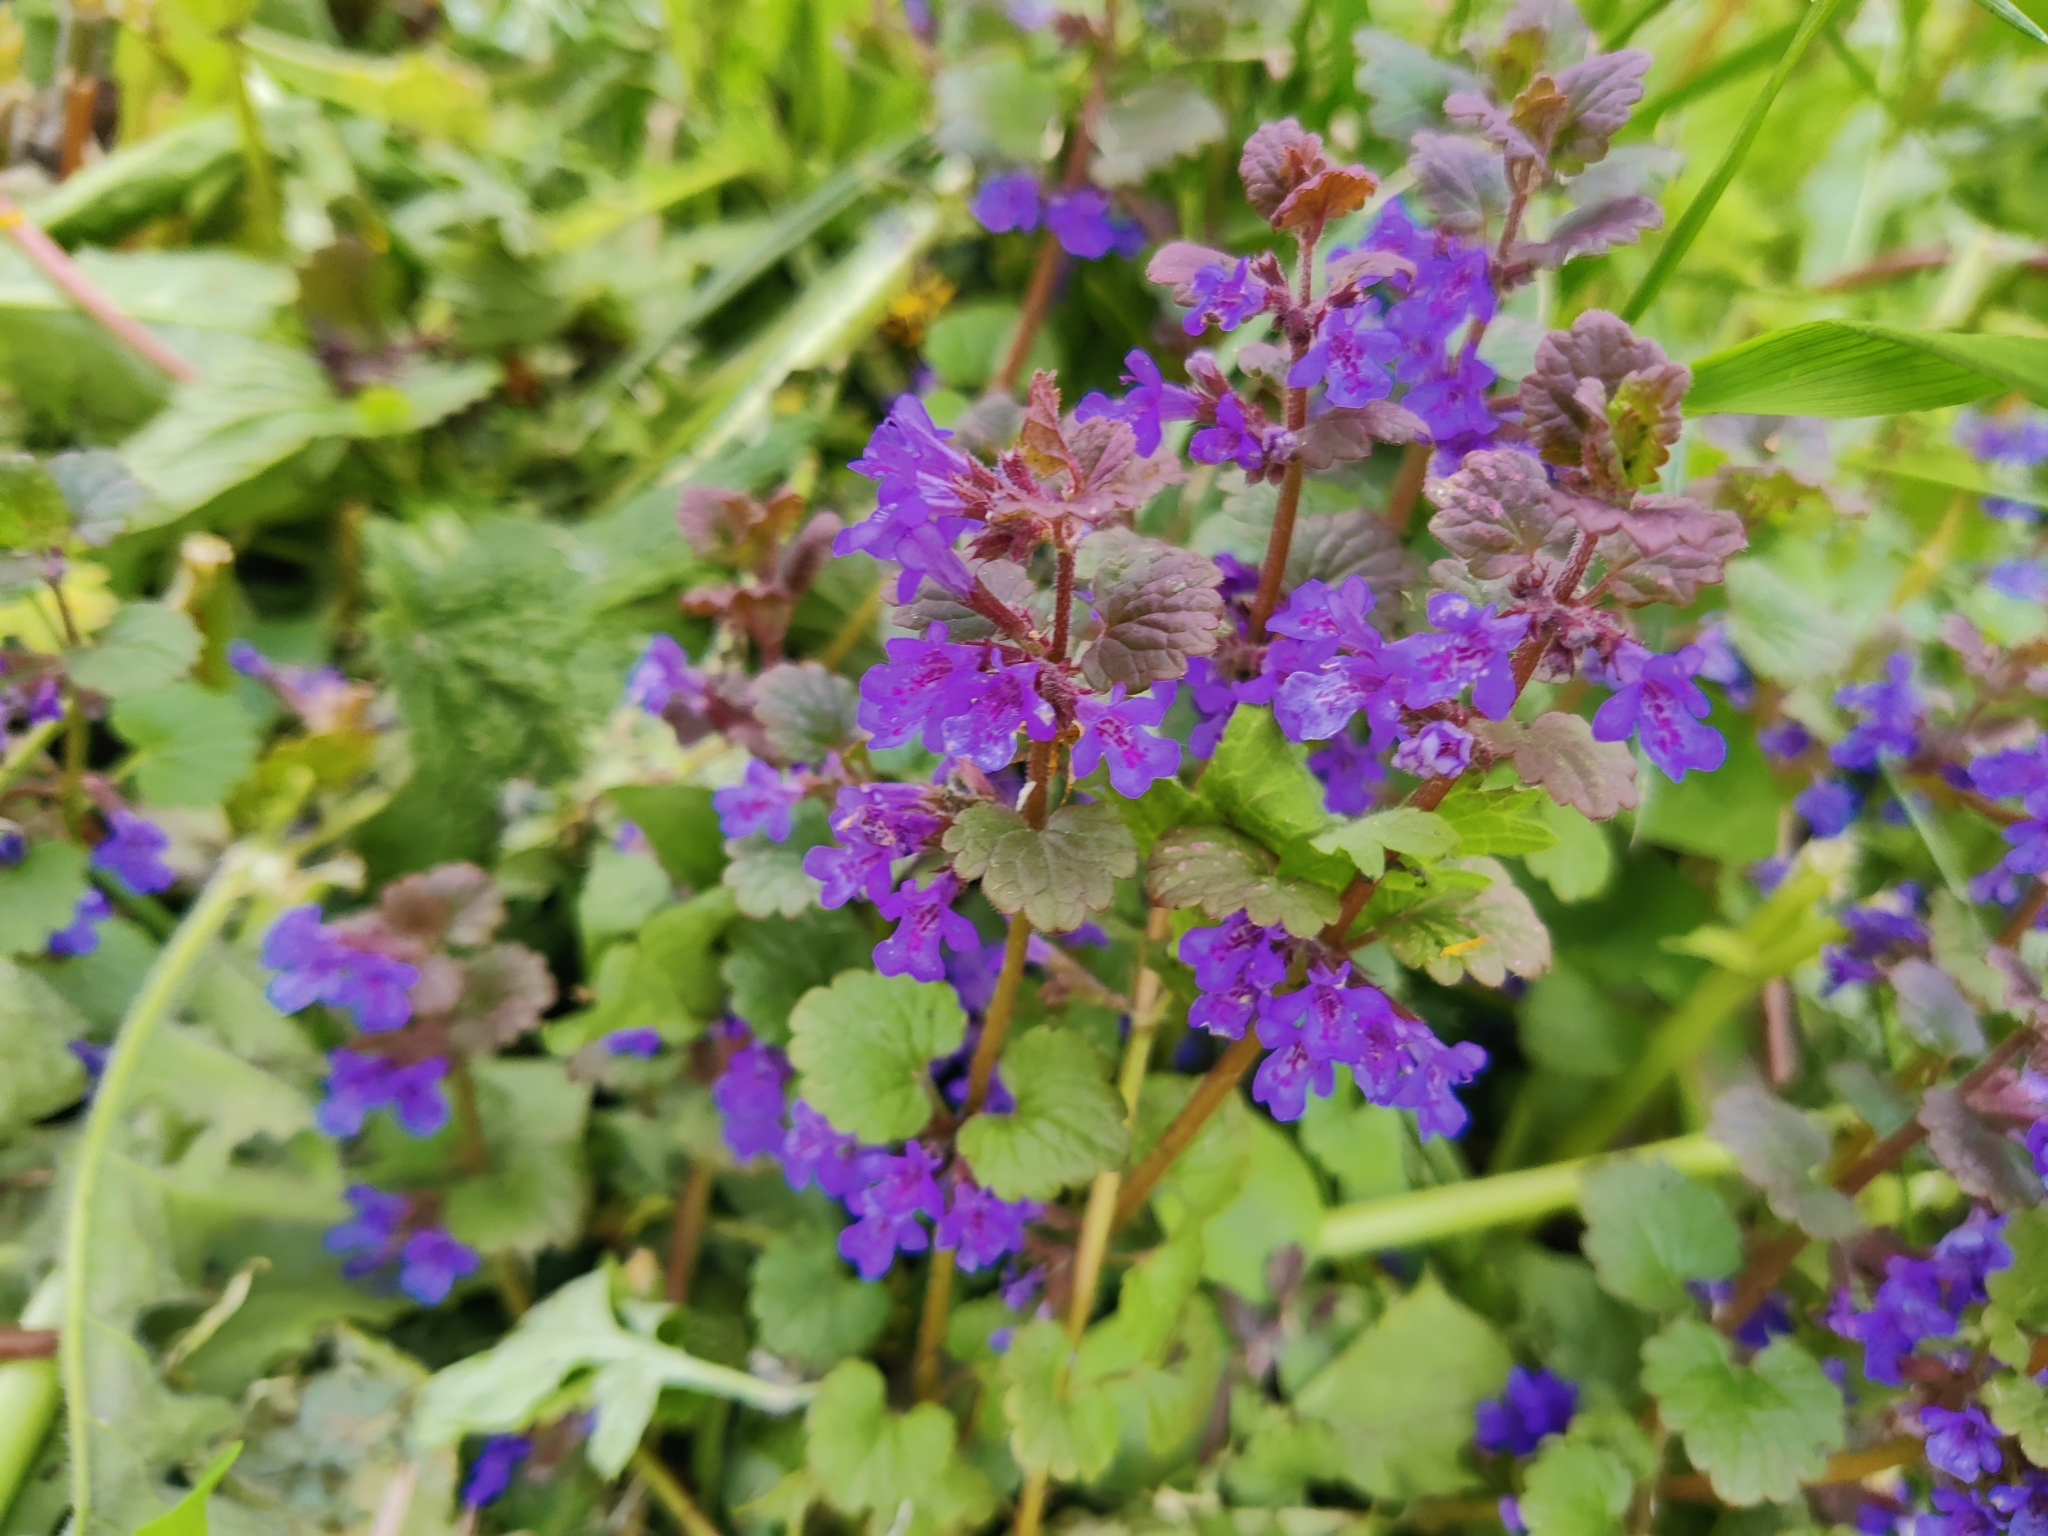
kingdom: Plantae
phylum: Tracheophyta
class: Magnoliopsida
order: Lamiales
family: Lamiaceae
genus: Glechoma
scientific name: Glechoma hederacea
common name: Ground ivy
